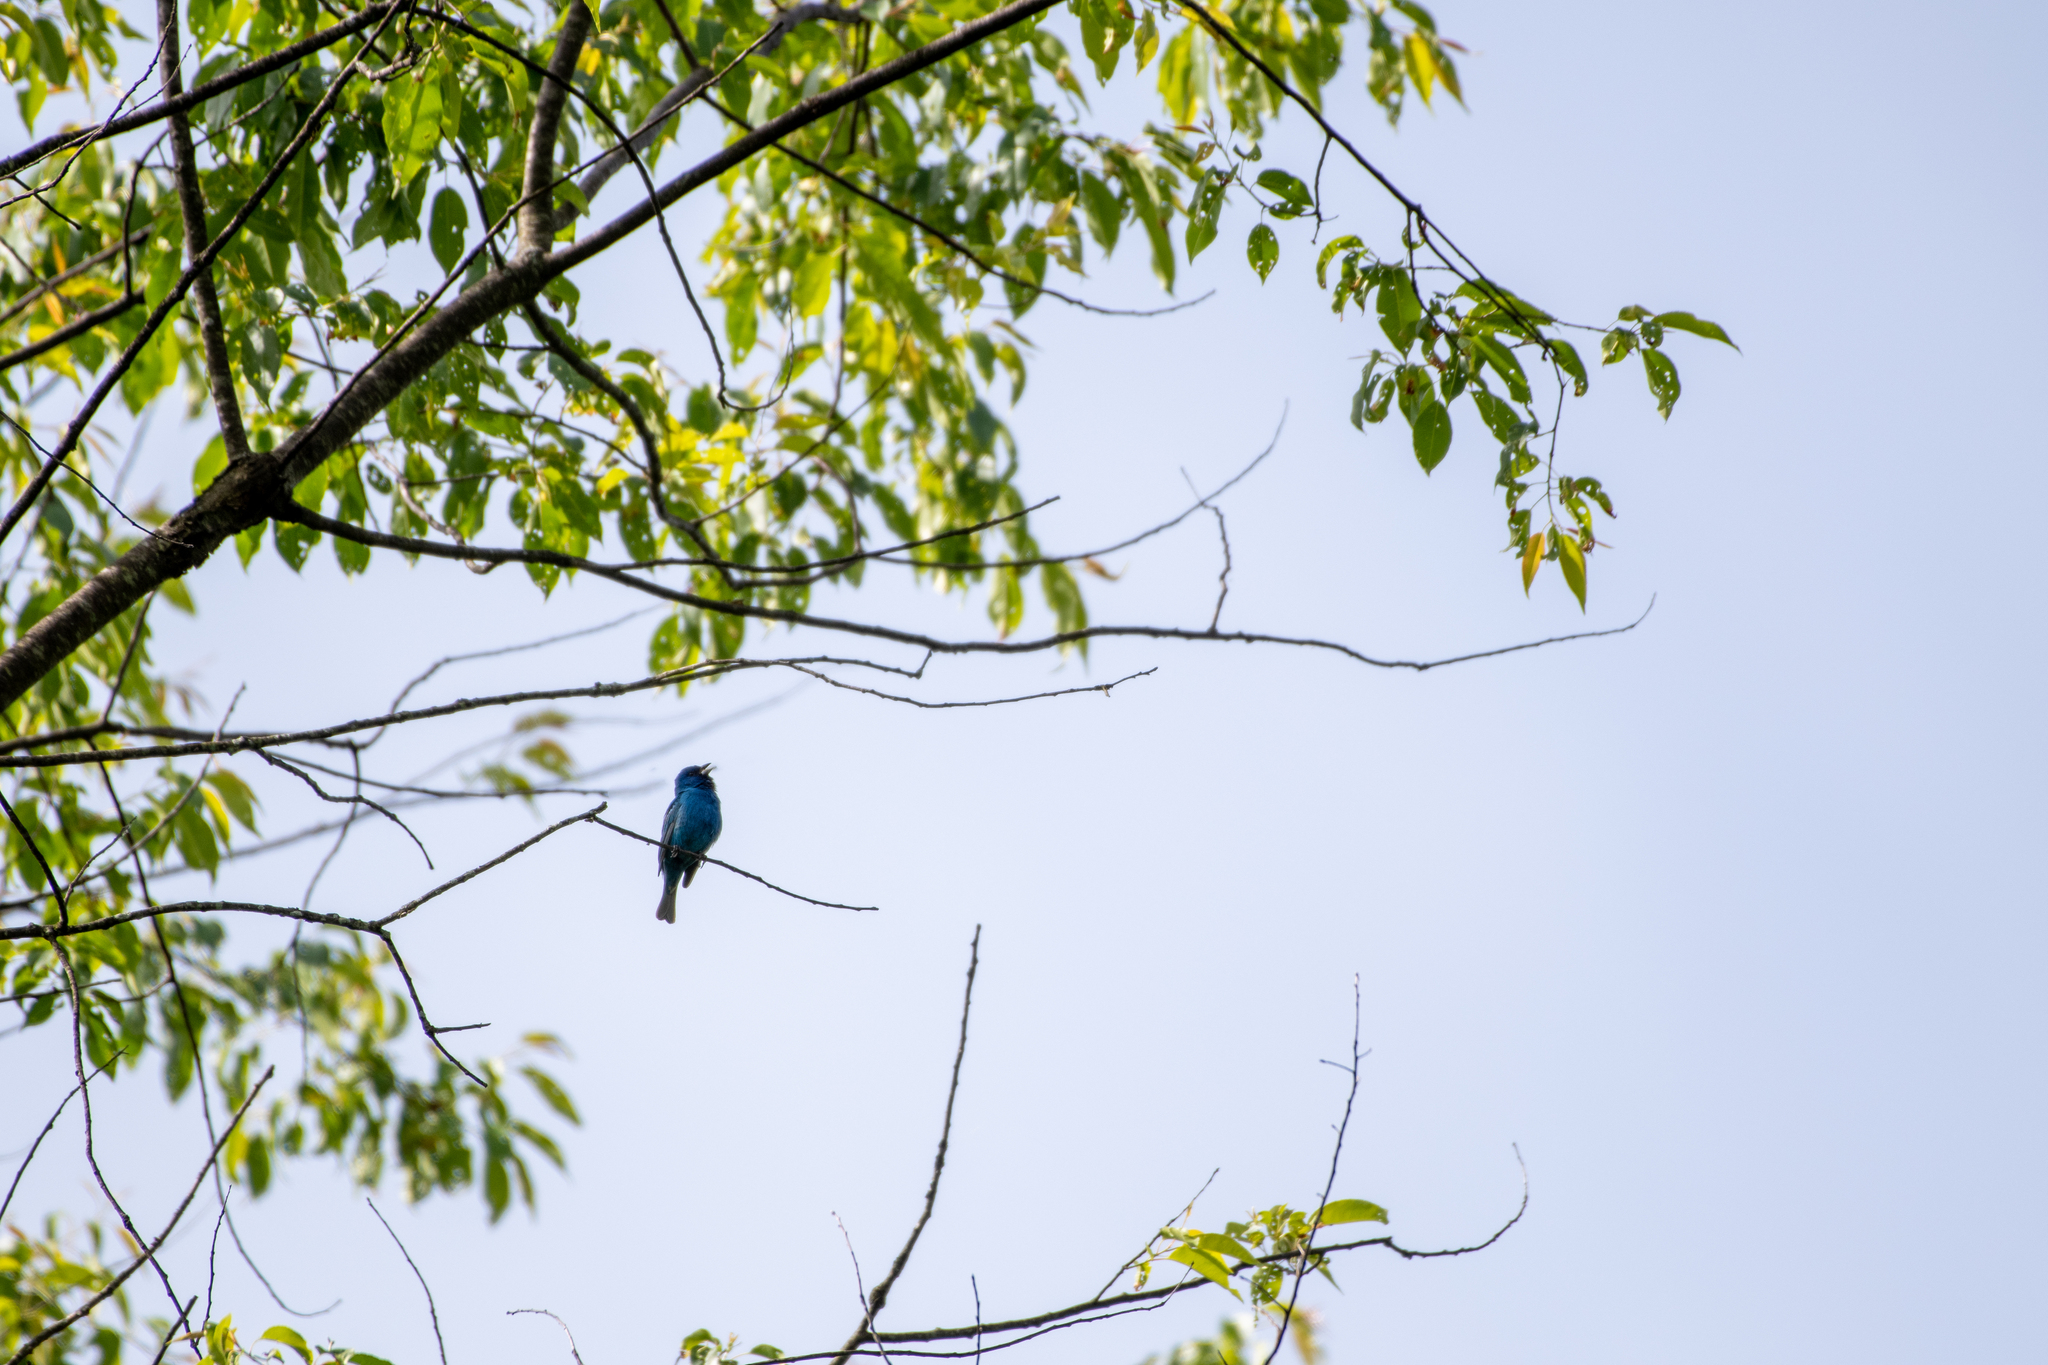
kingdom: Animalia
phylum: Chordata
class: Aves
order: Passeriformes
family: Cardinalidae
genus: Passerina
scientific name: Passerina cyanea
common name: Indigo bunting
